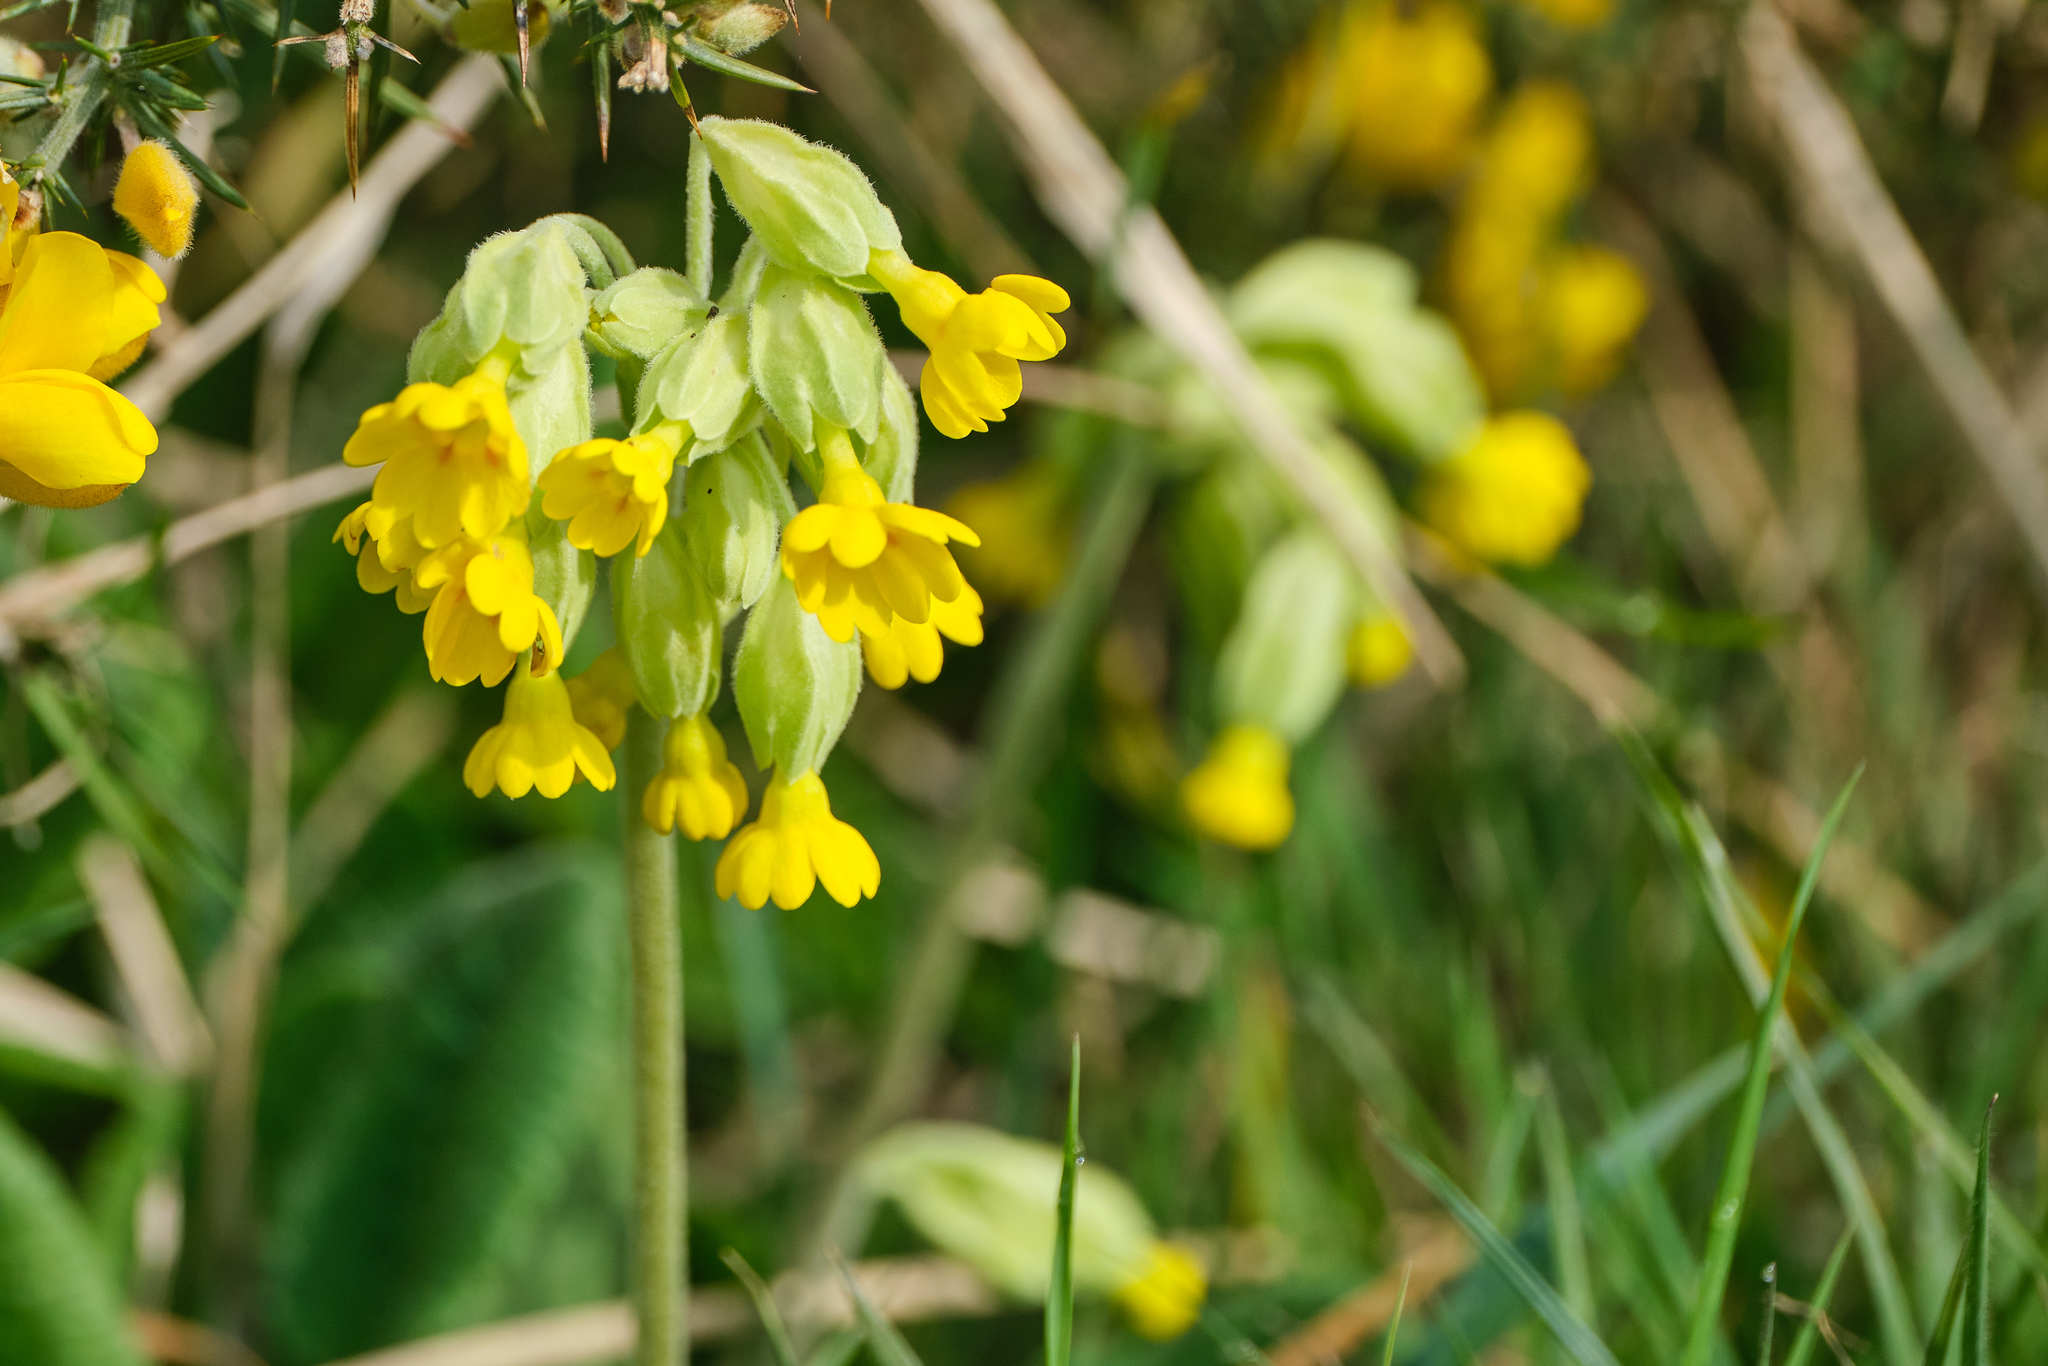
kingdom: Plantae
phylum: Tracheophyta
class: Magnoliopsida
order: Ericales
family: Primulaceae
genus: Primula
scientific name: Primula veris
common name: Cowslip
